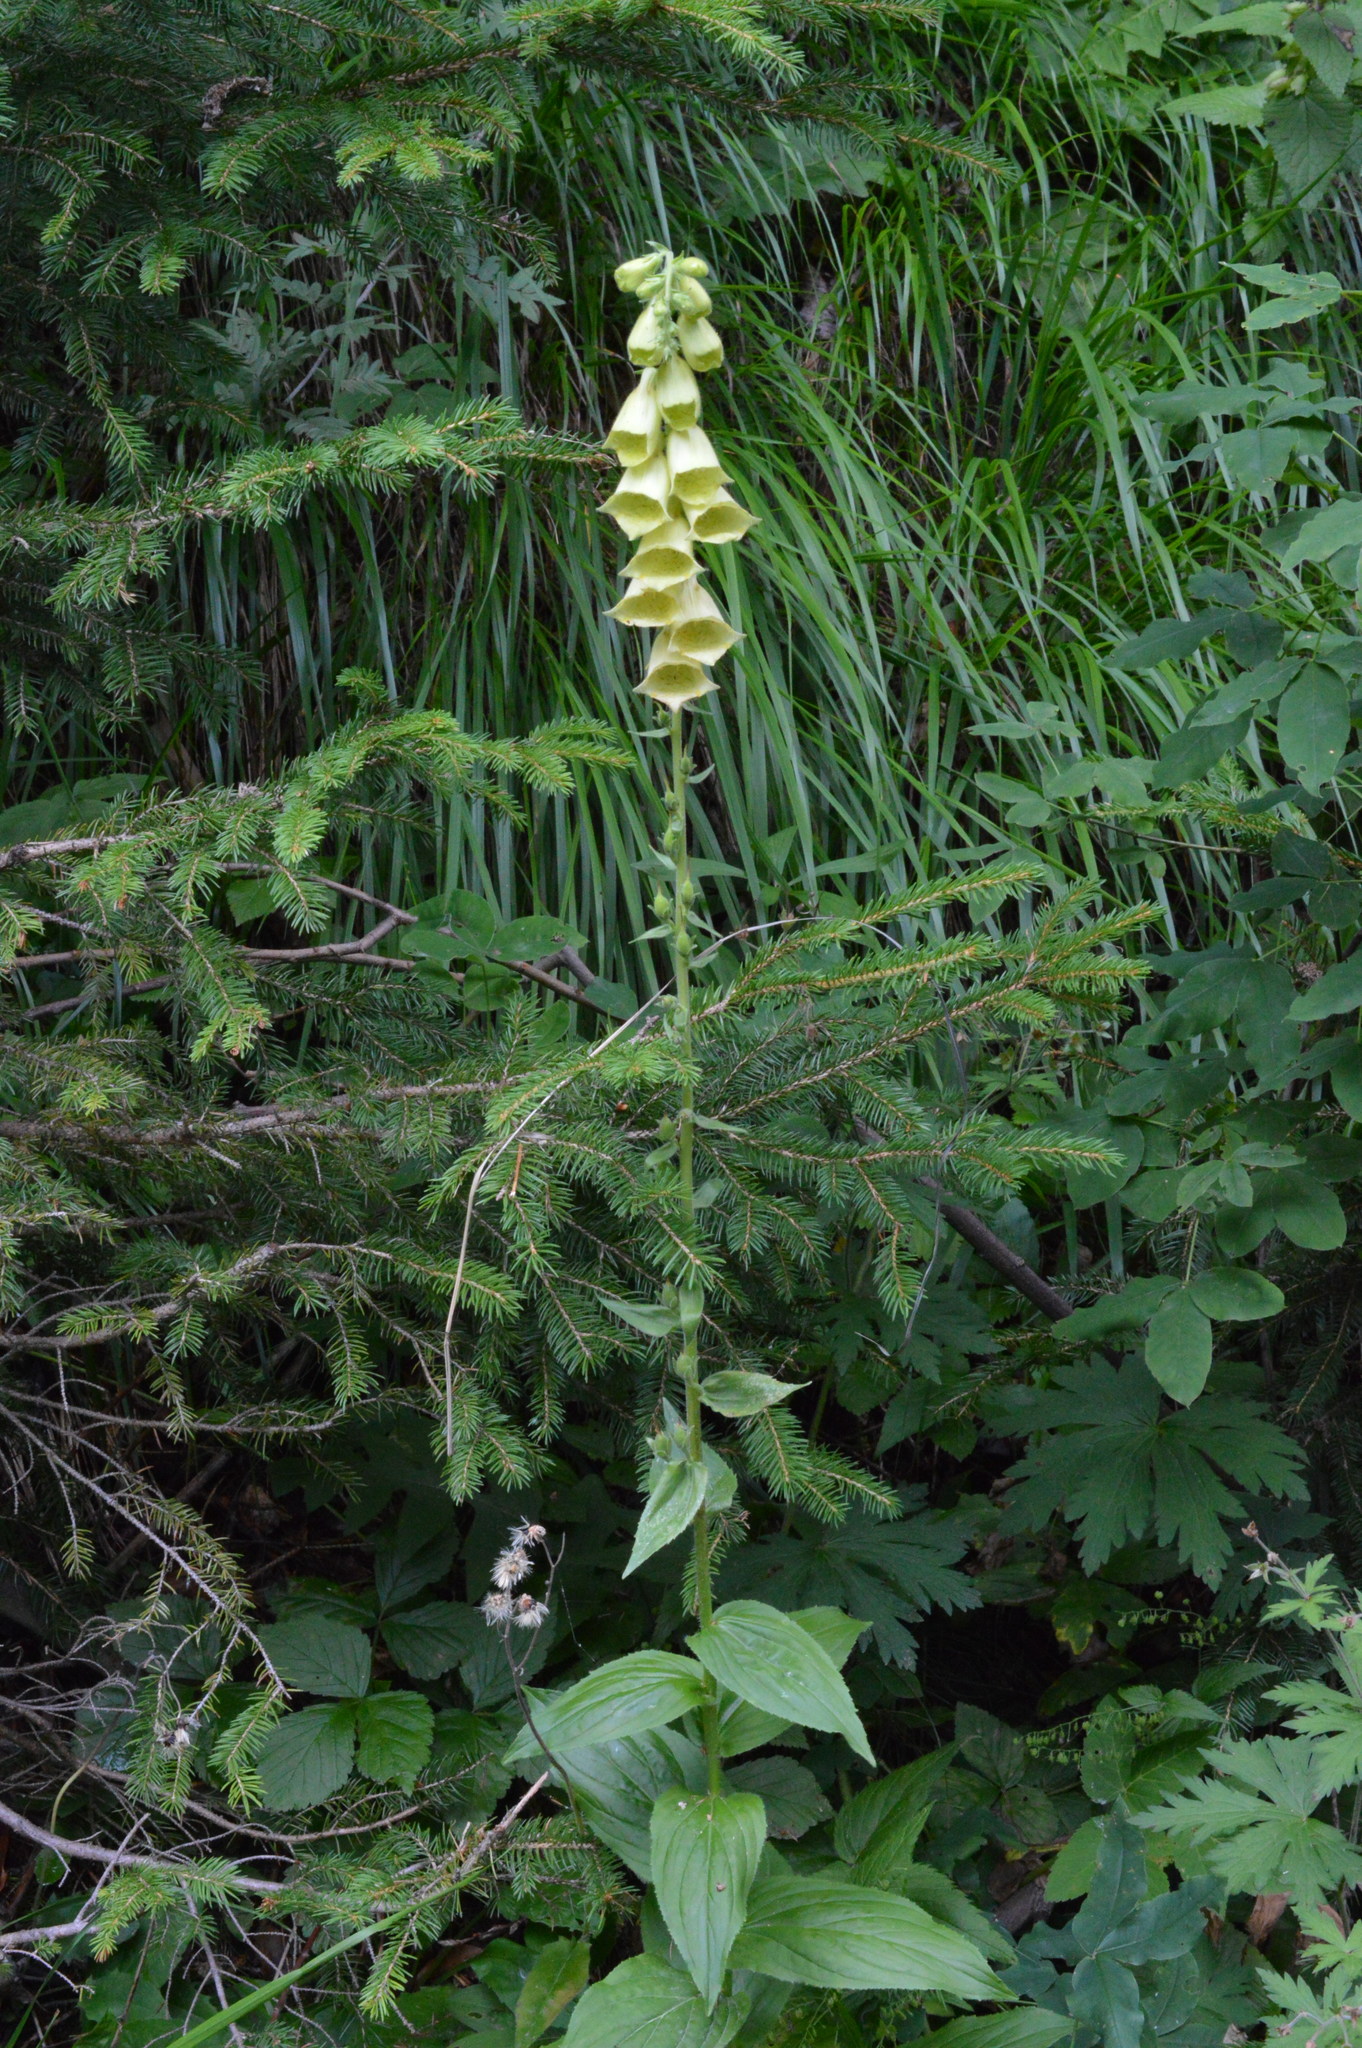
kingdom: Plantae
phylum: Tracheophyta
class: Magnoliopsida
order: Lamiales
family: Plantaginaceae
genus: Digitalis
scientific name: Digitalis grandiflora
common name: Yellow foxglove
